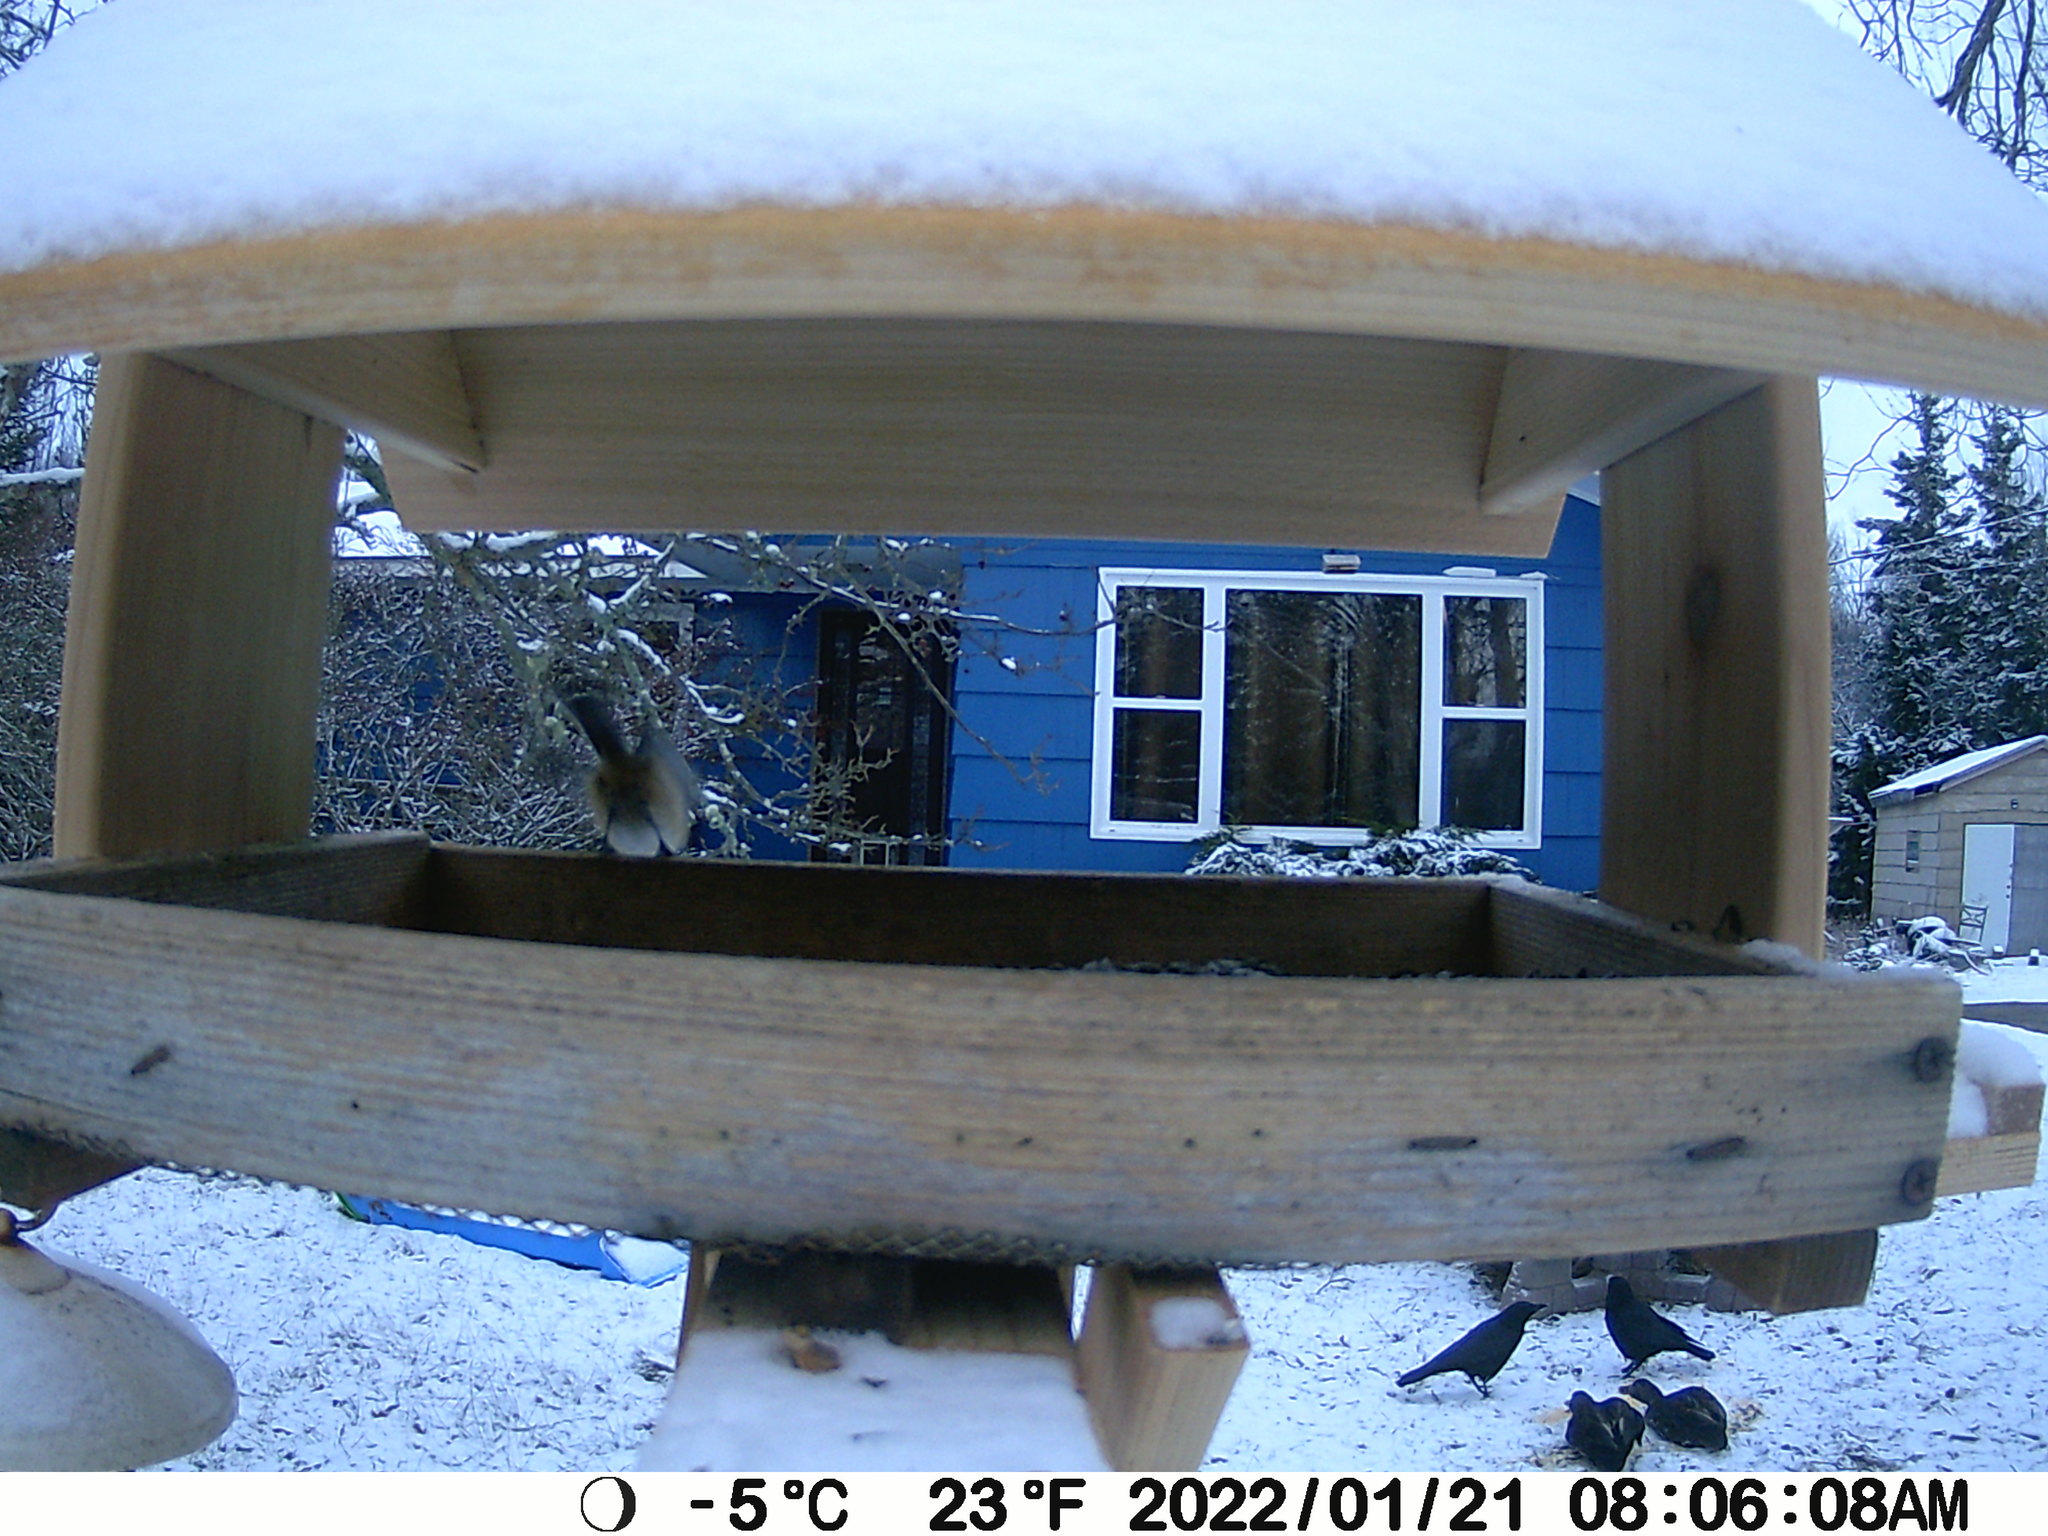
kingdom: Animalia
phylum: Chordata
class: Aves
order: Passeriformes
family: Corvidae
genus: Corvus
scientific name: Corvus brachyrhynchos
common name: American crow
